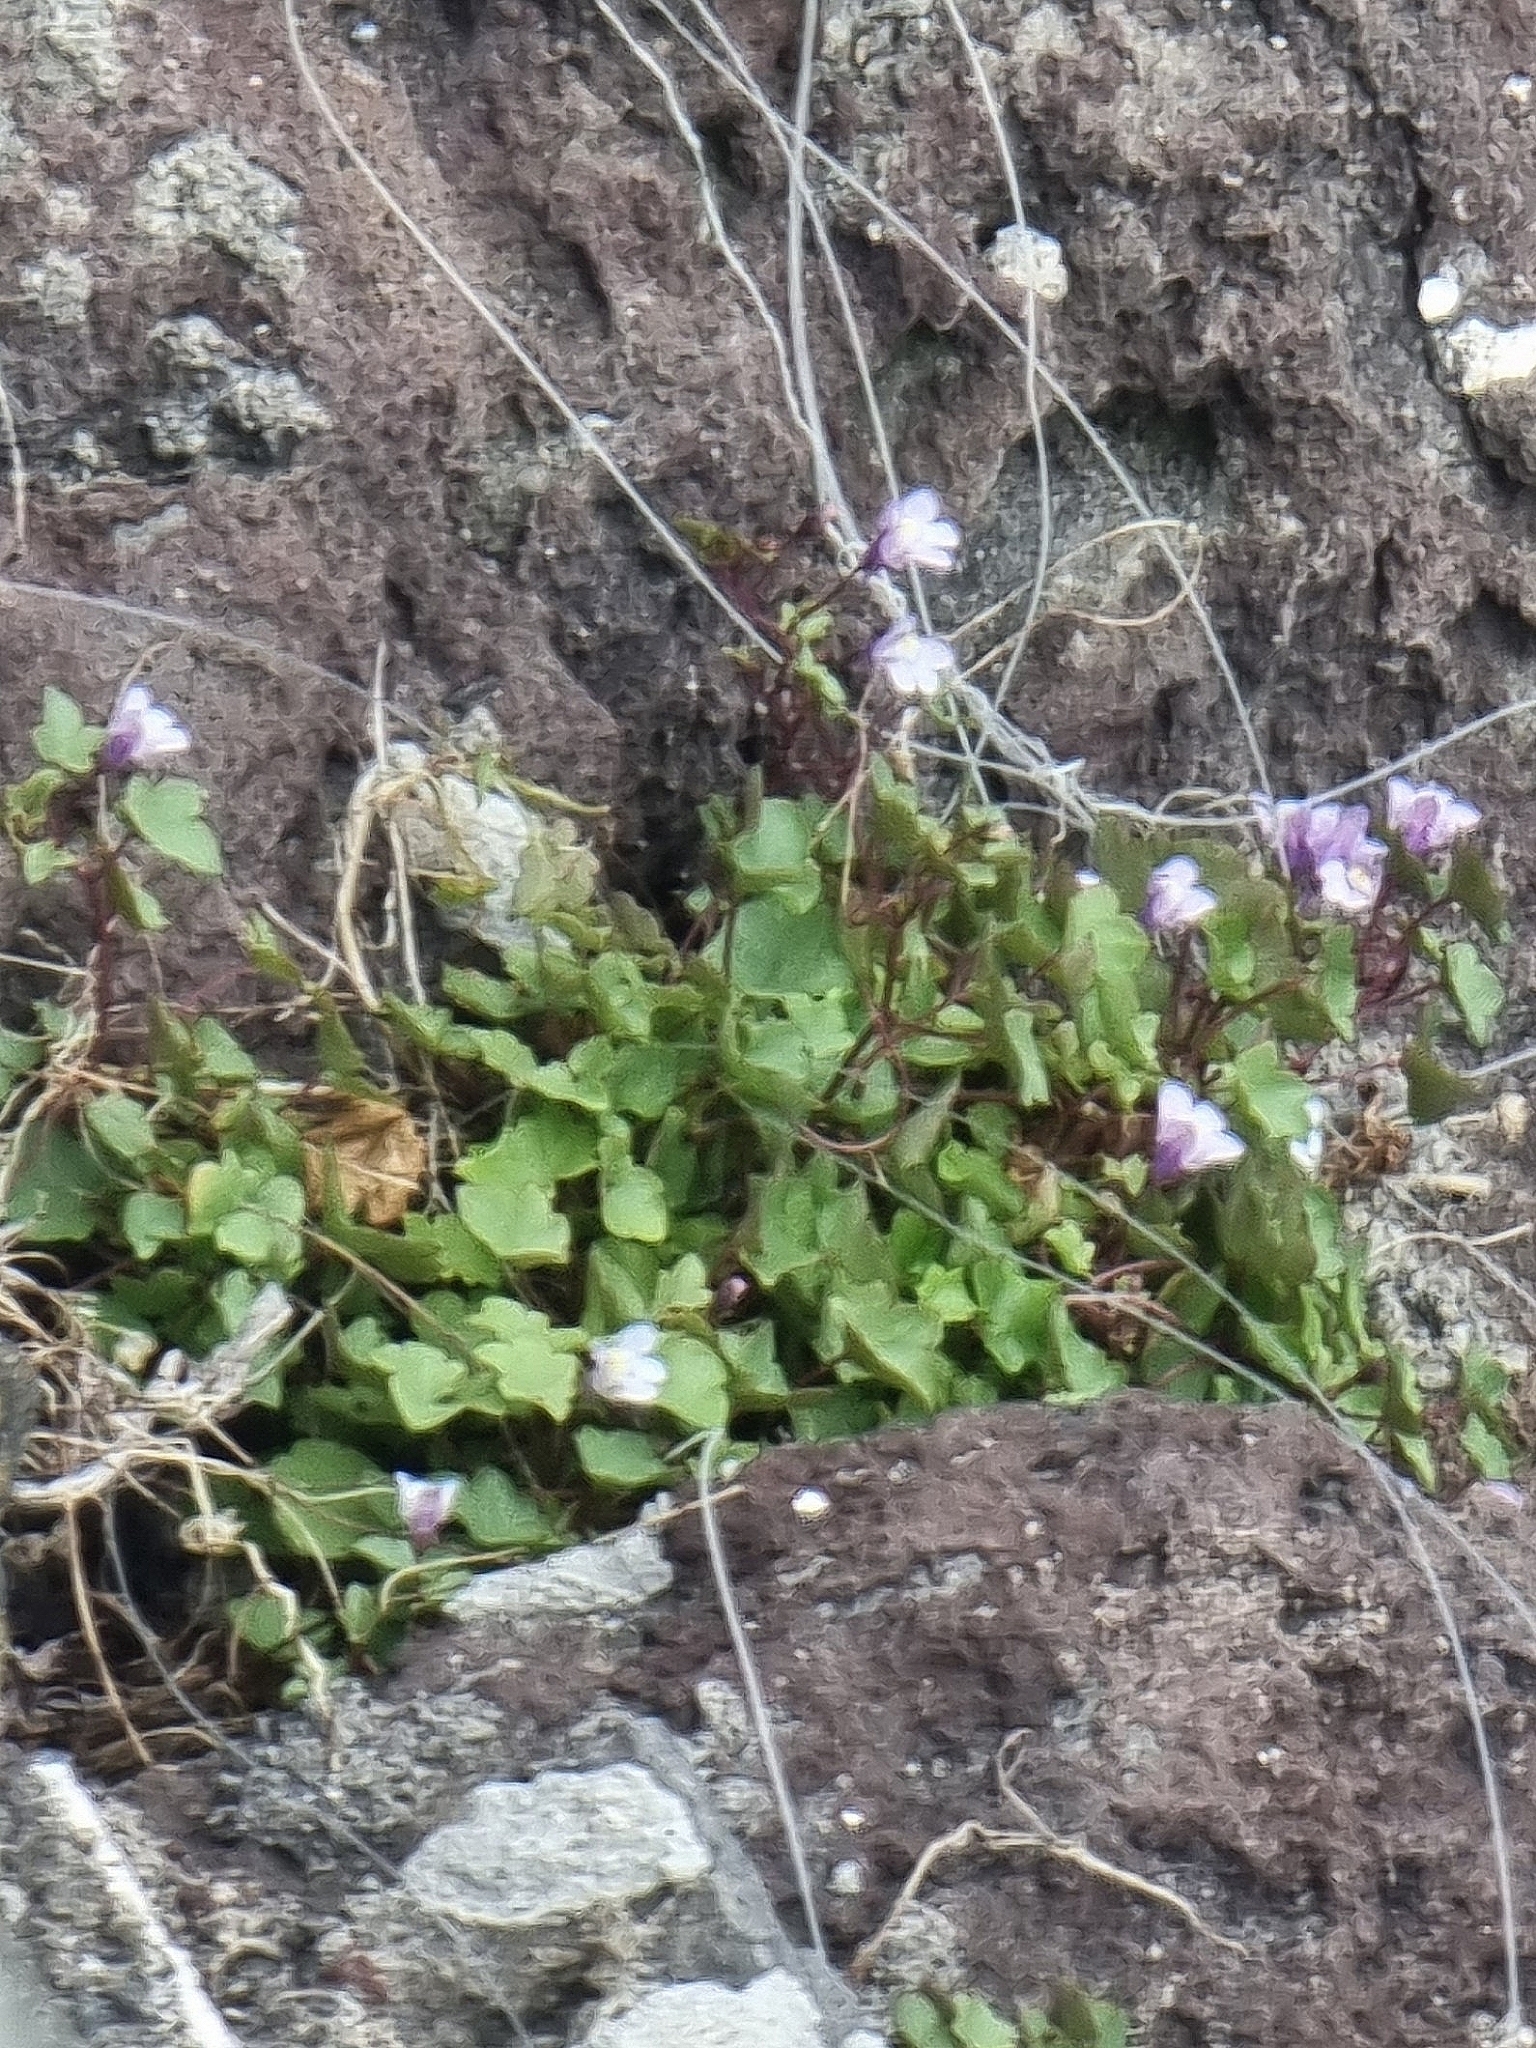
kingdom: Plantae
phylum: Tracheophyta
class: Magnoliopsida
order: Lamiales
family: Plantaginaceae
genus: Cymbalaria
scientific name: Cymbalaria muralis
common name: Ivy-leaved toadflax
